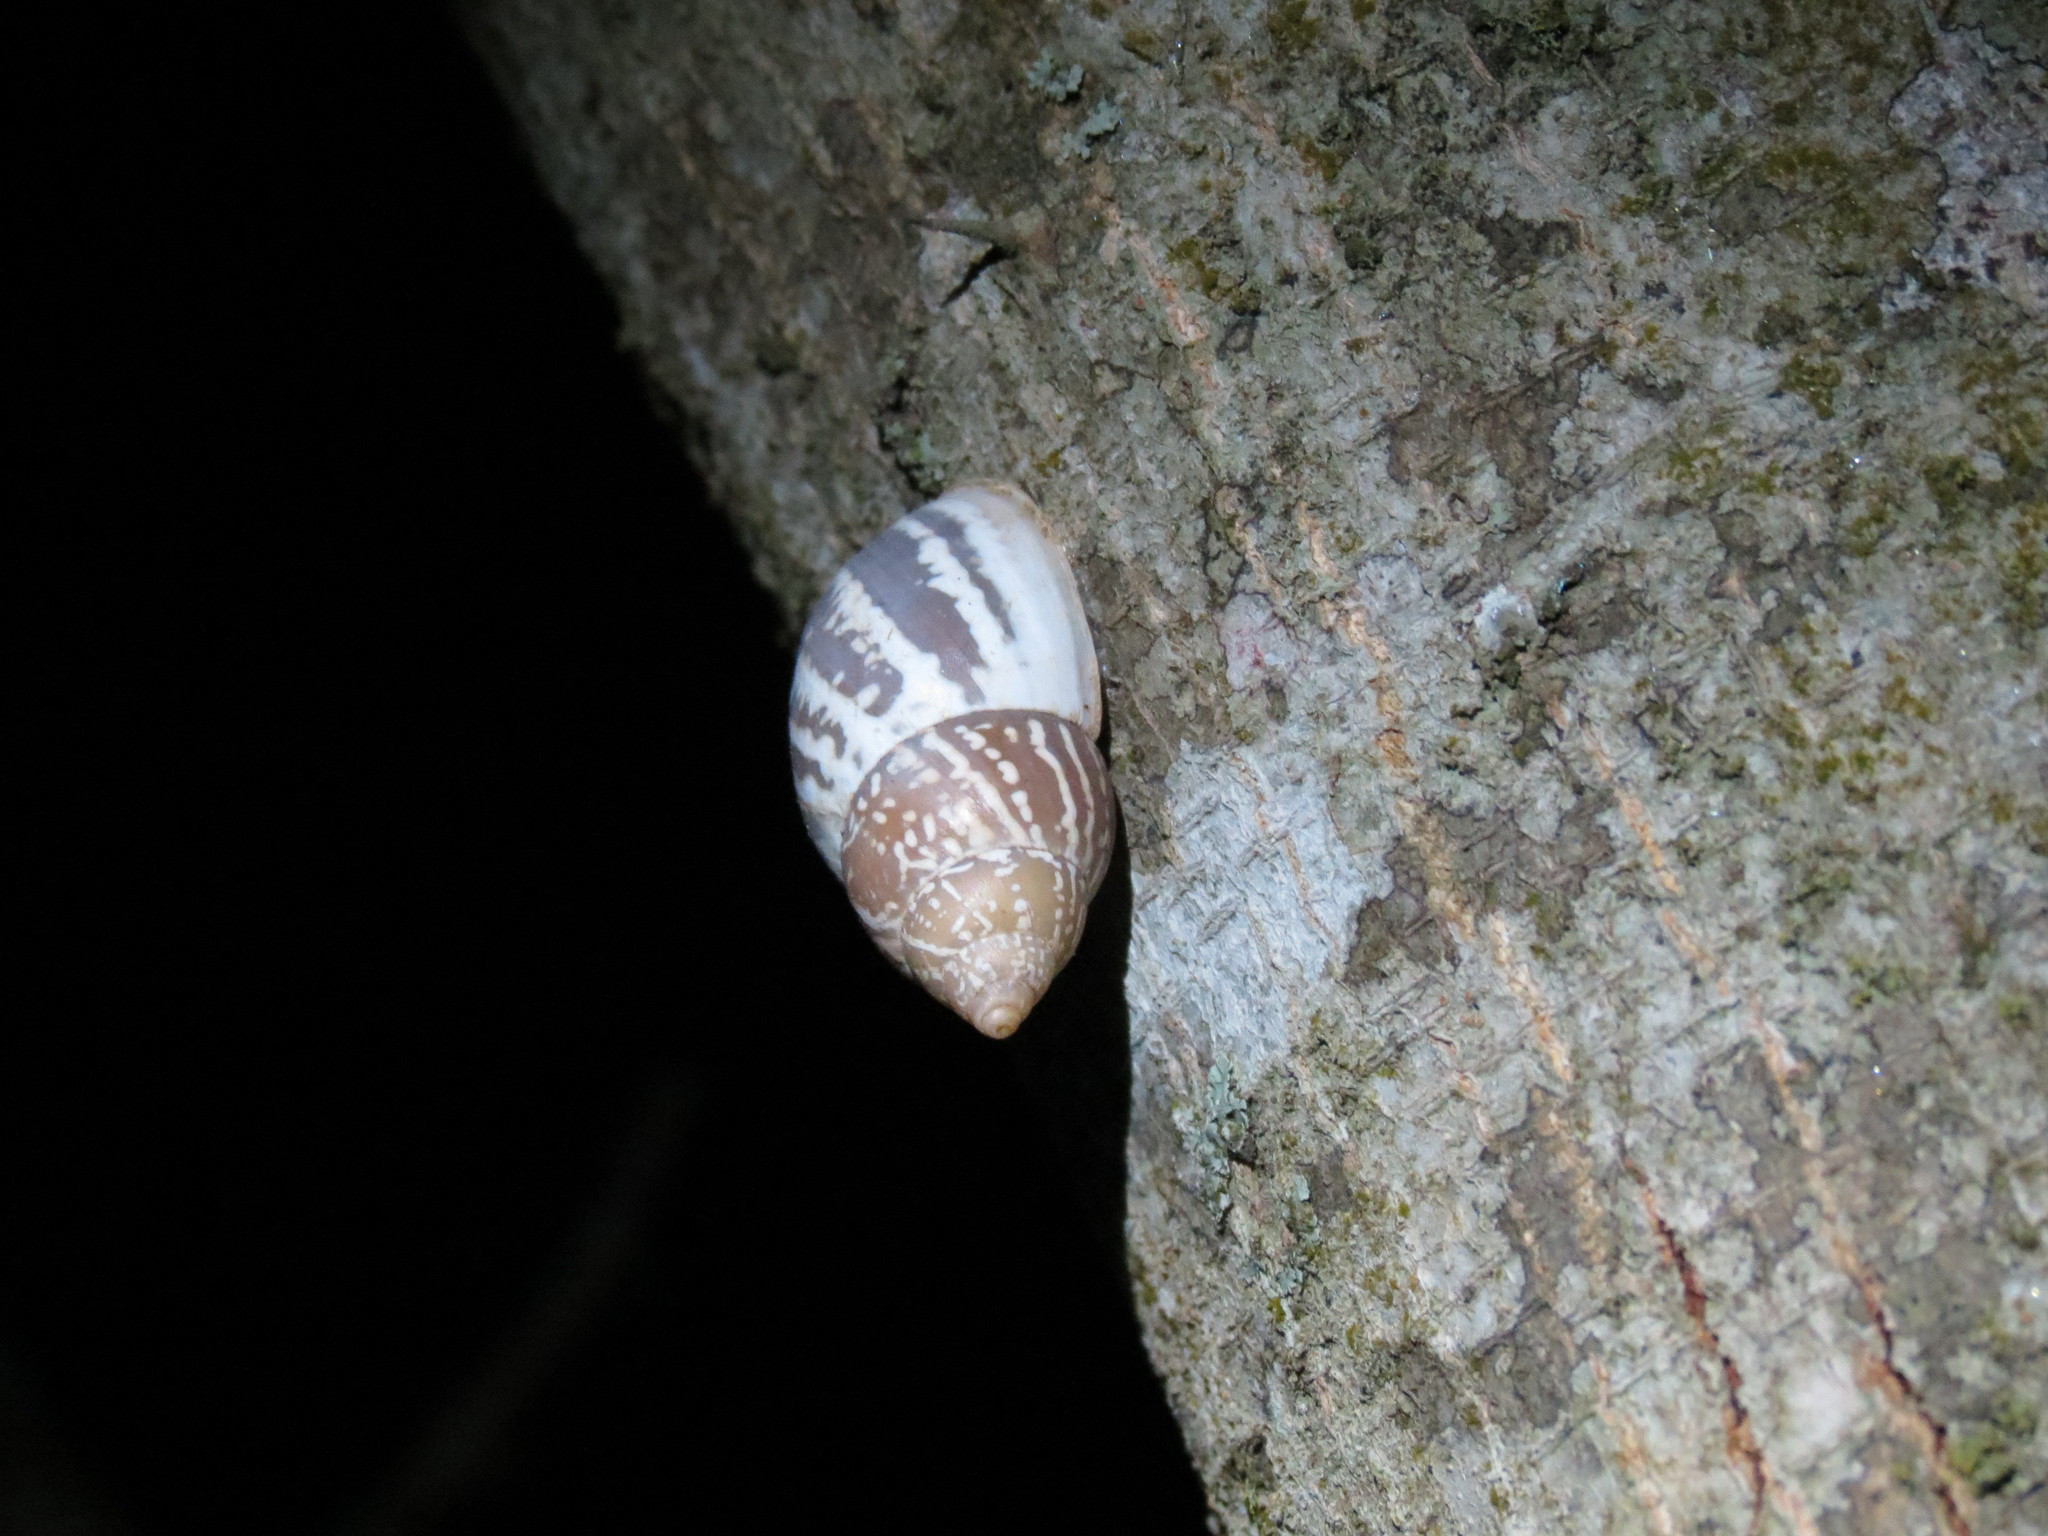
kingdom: Animalia
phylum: Mollusca
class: Gastropoda
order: Stylommatophora
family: Bulimulidae
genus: Rabdotus
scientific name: Rabdotus alternatus
